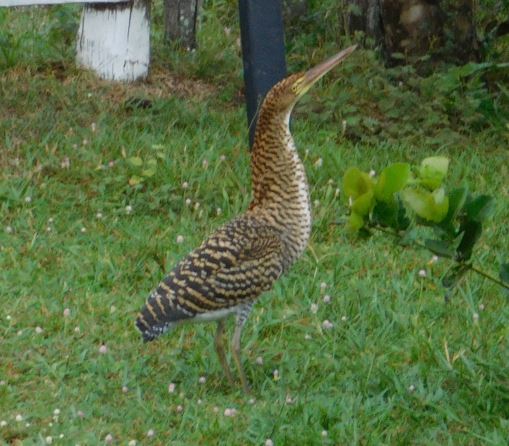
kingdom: Animalia
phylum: Chordata
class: Aves
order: Pelecaniformes
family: Ardeidae
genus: Tigrisoma
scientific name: Tigrisoma lineatum
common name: Rufescent tiger-heron
